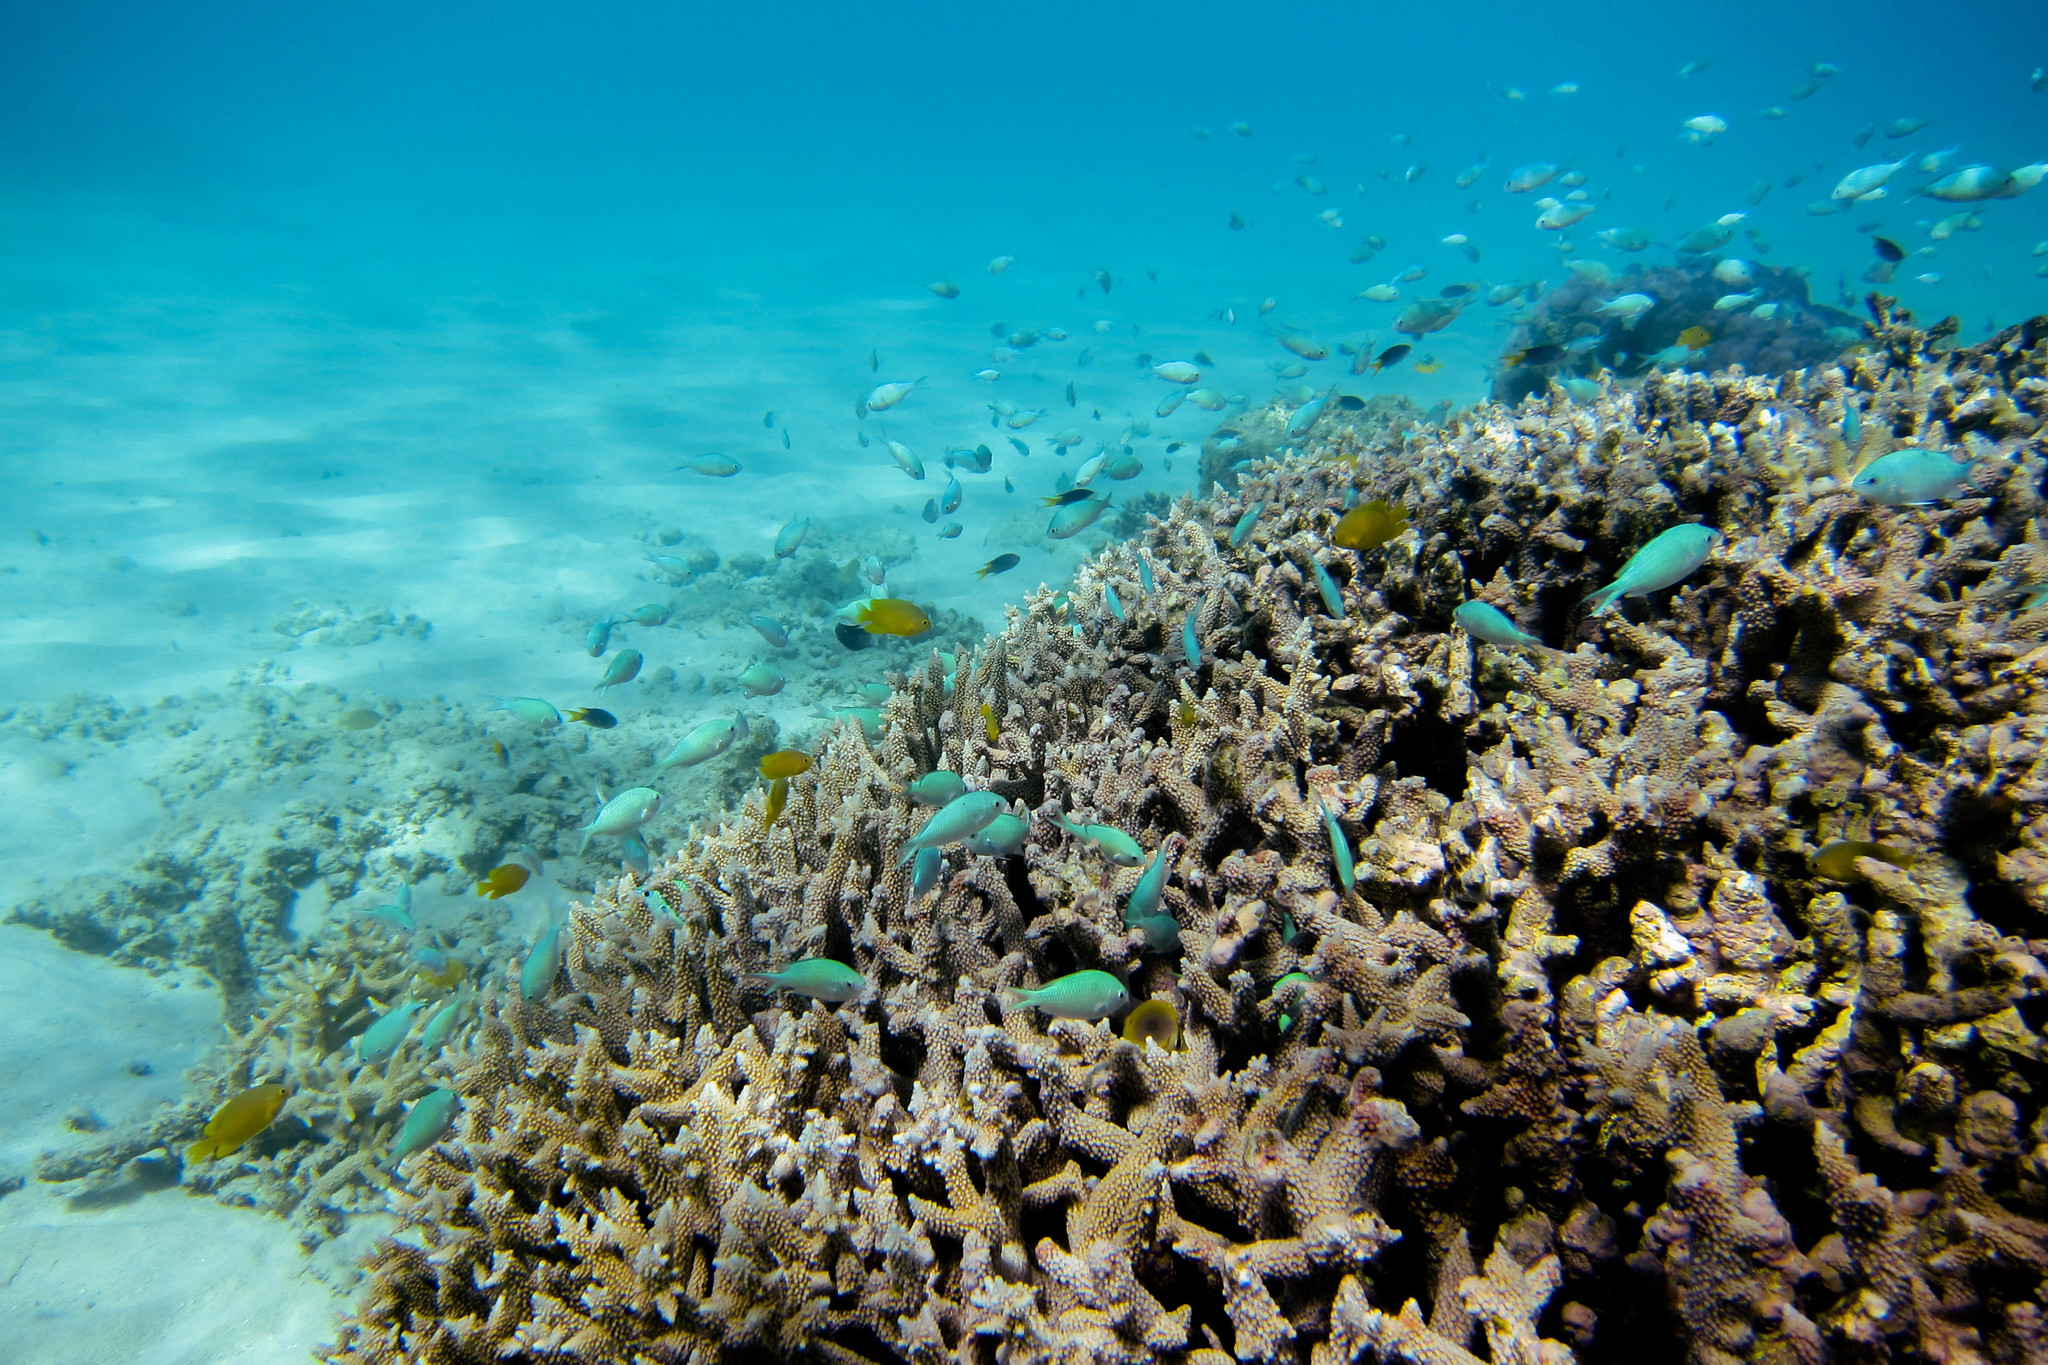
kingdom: Animalia
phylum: Chordata
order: Perciformes
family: Pomacentridae
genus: Chromis
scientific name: Chromis viridis
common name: Blue-green chromis
